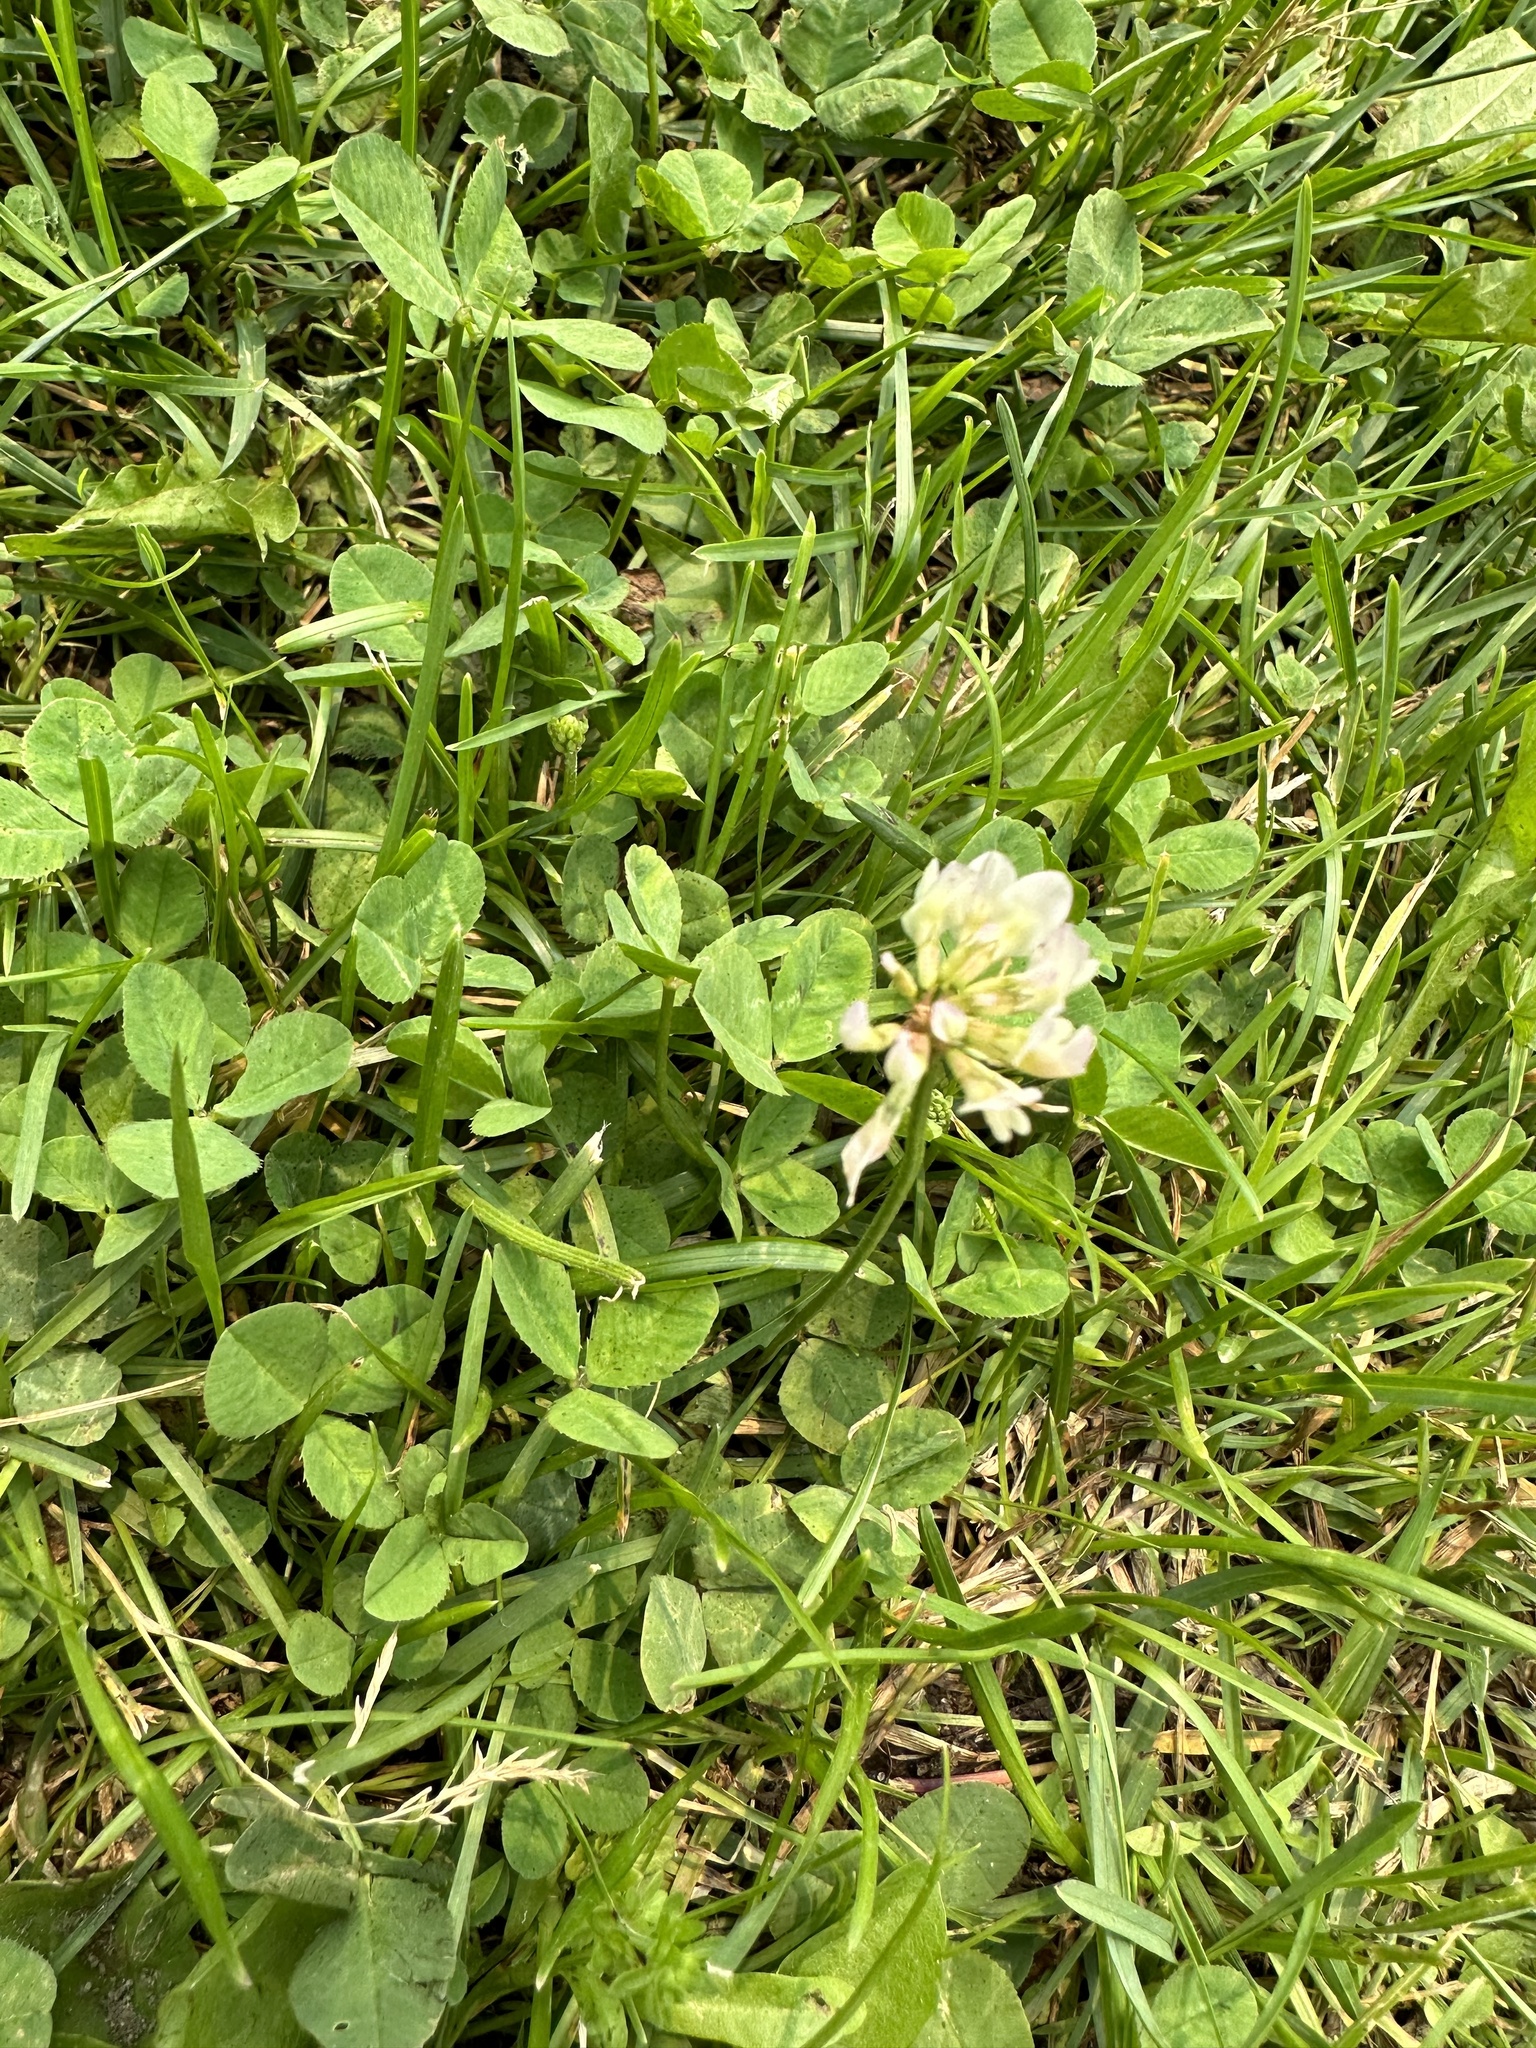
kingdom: Plantae
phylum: Tracheophyta
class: Magnoliopsida
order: Fabales
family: Fabaceae
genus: Trifolium
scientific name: Trifolium repens
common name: White clover
